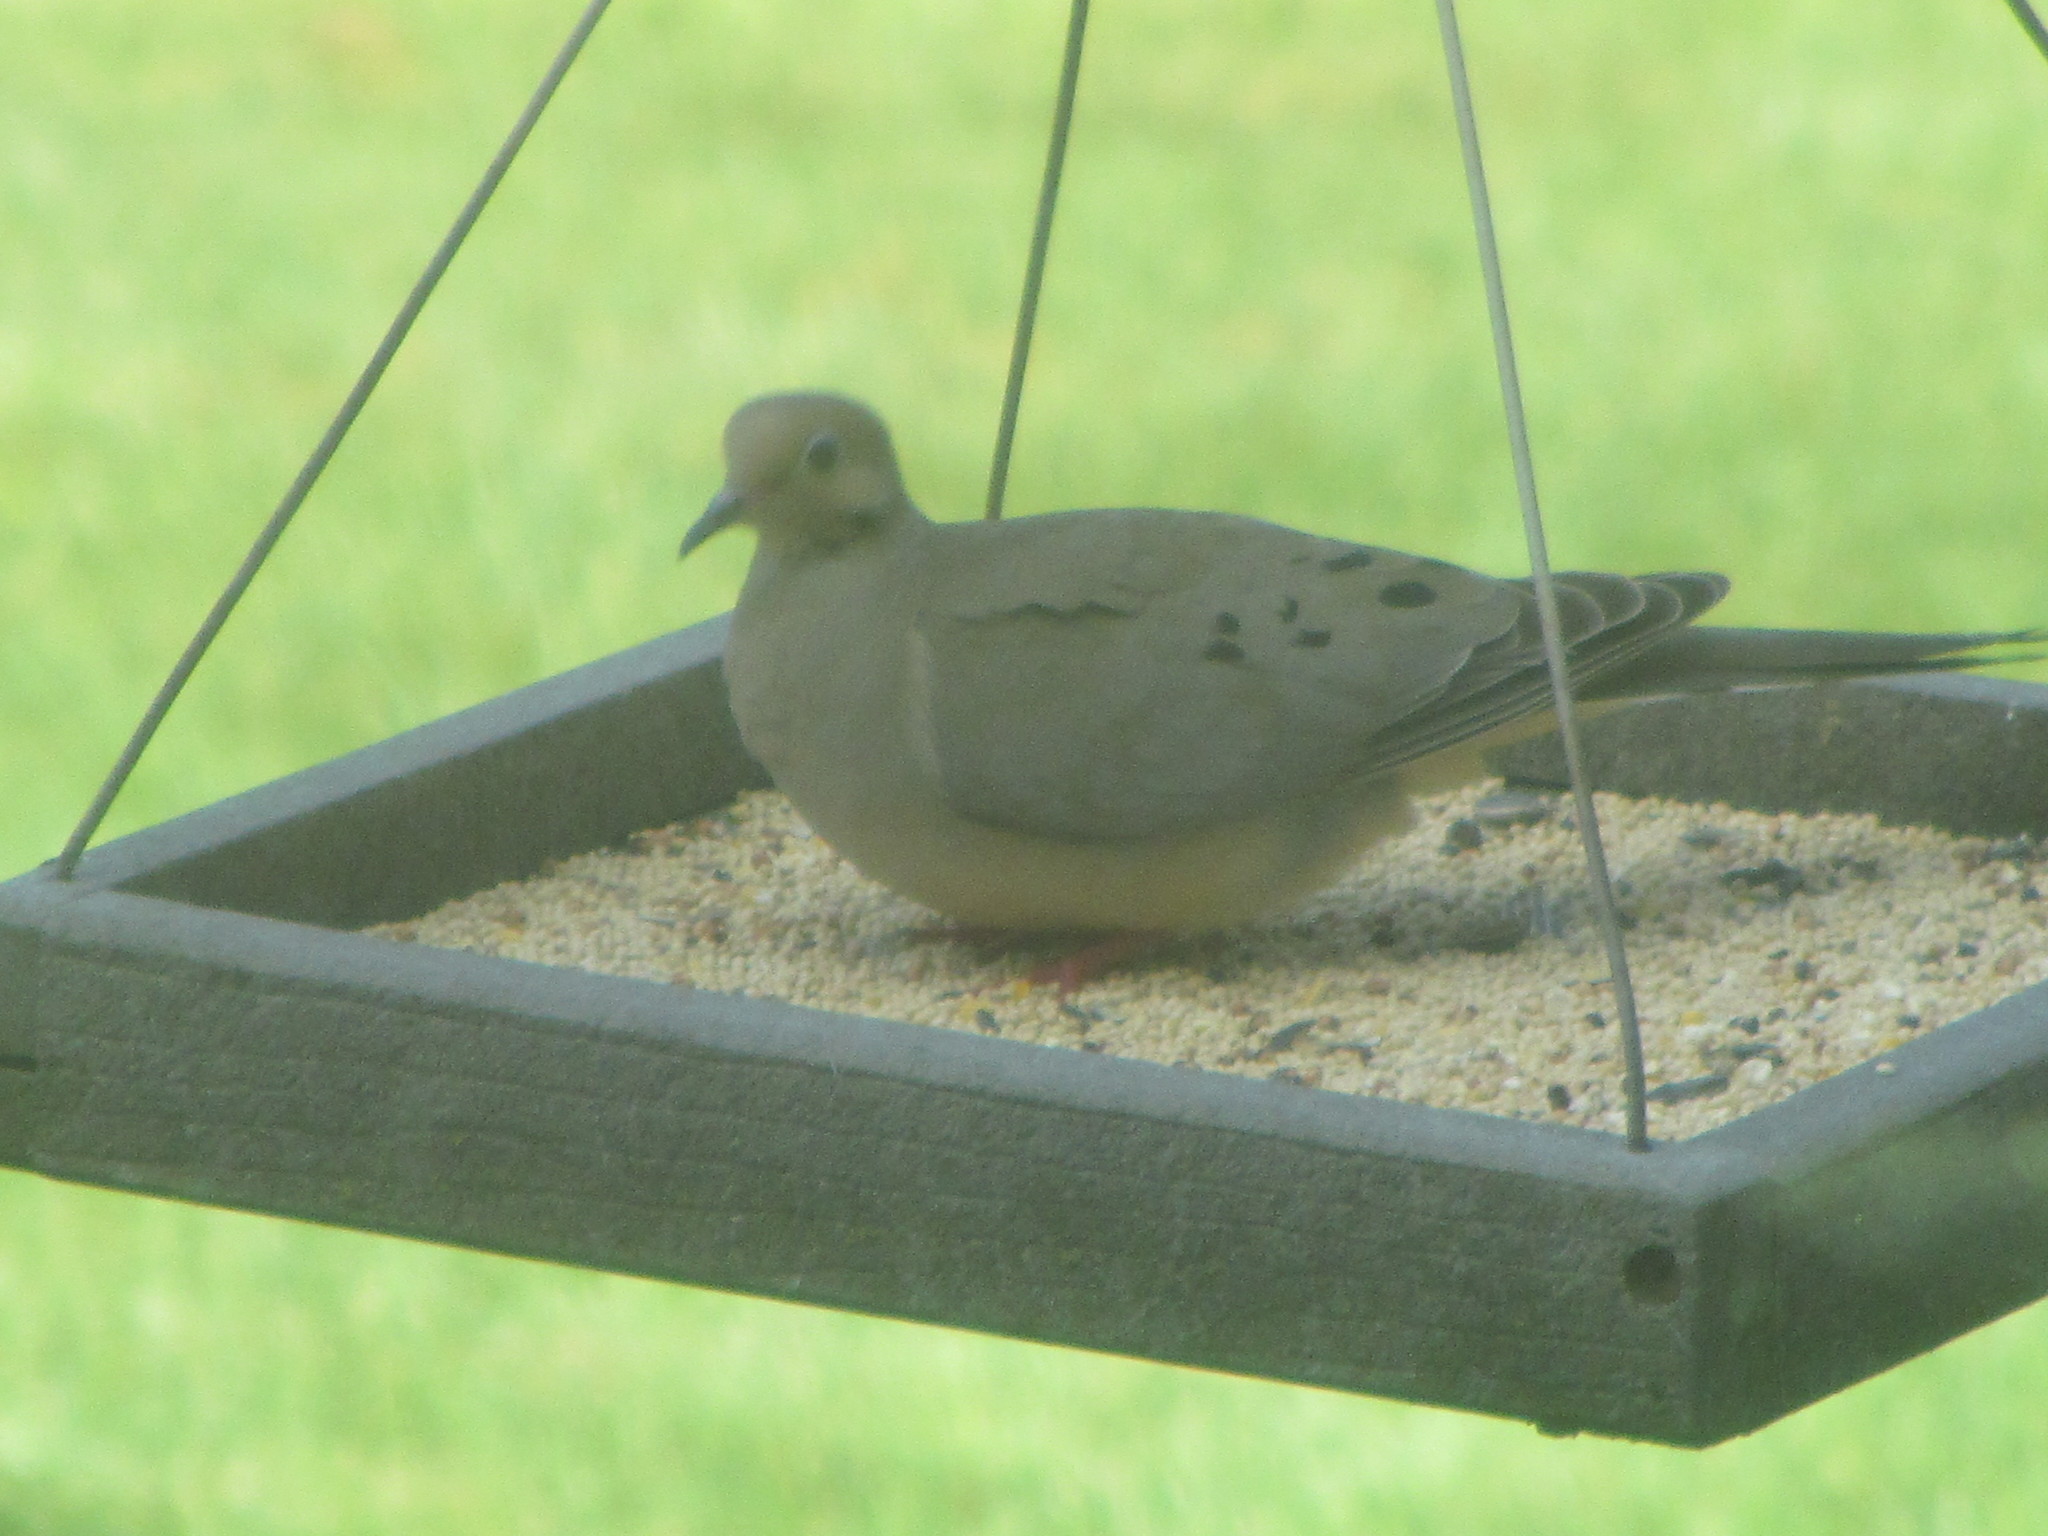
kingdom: Animalia
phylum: Chordata
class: Aves
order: Columbiformes
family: Columbidae
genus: Zenaida
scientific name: Zenaida macroura
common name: Mourning dove
